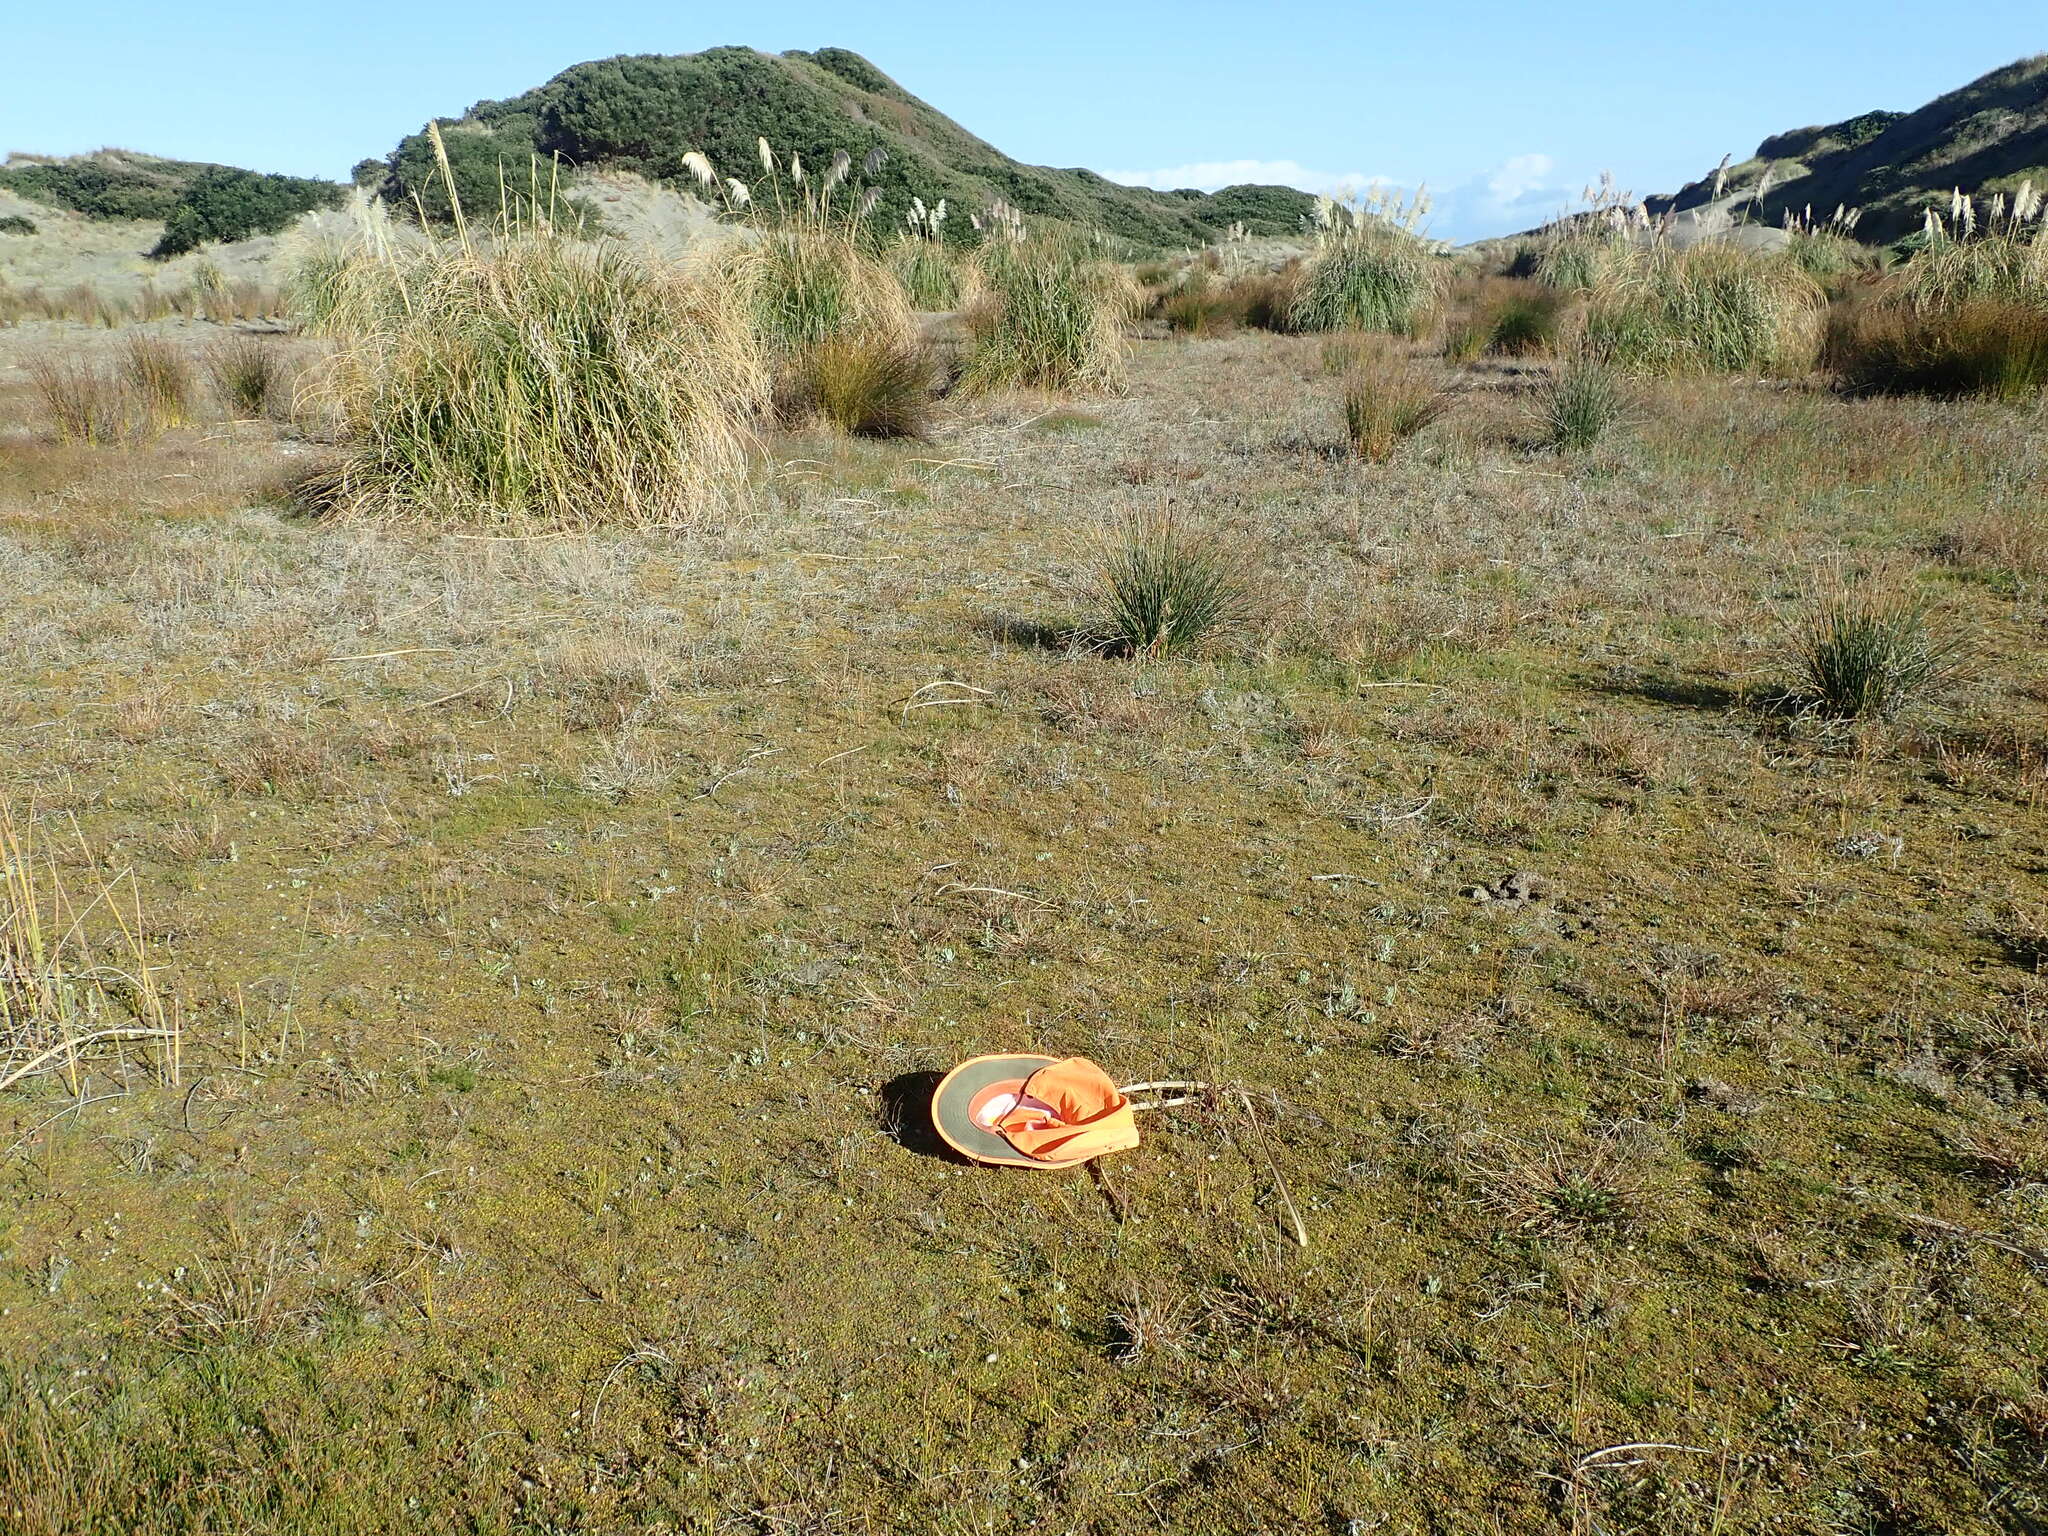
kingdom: Plantae
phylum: Tracheophyta
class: Liliopsida
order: Poales
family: Cyperaceae
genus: Eleocharis
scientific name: Eleocharis neozelandica
